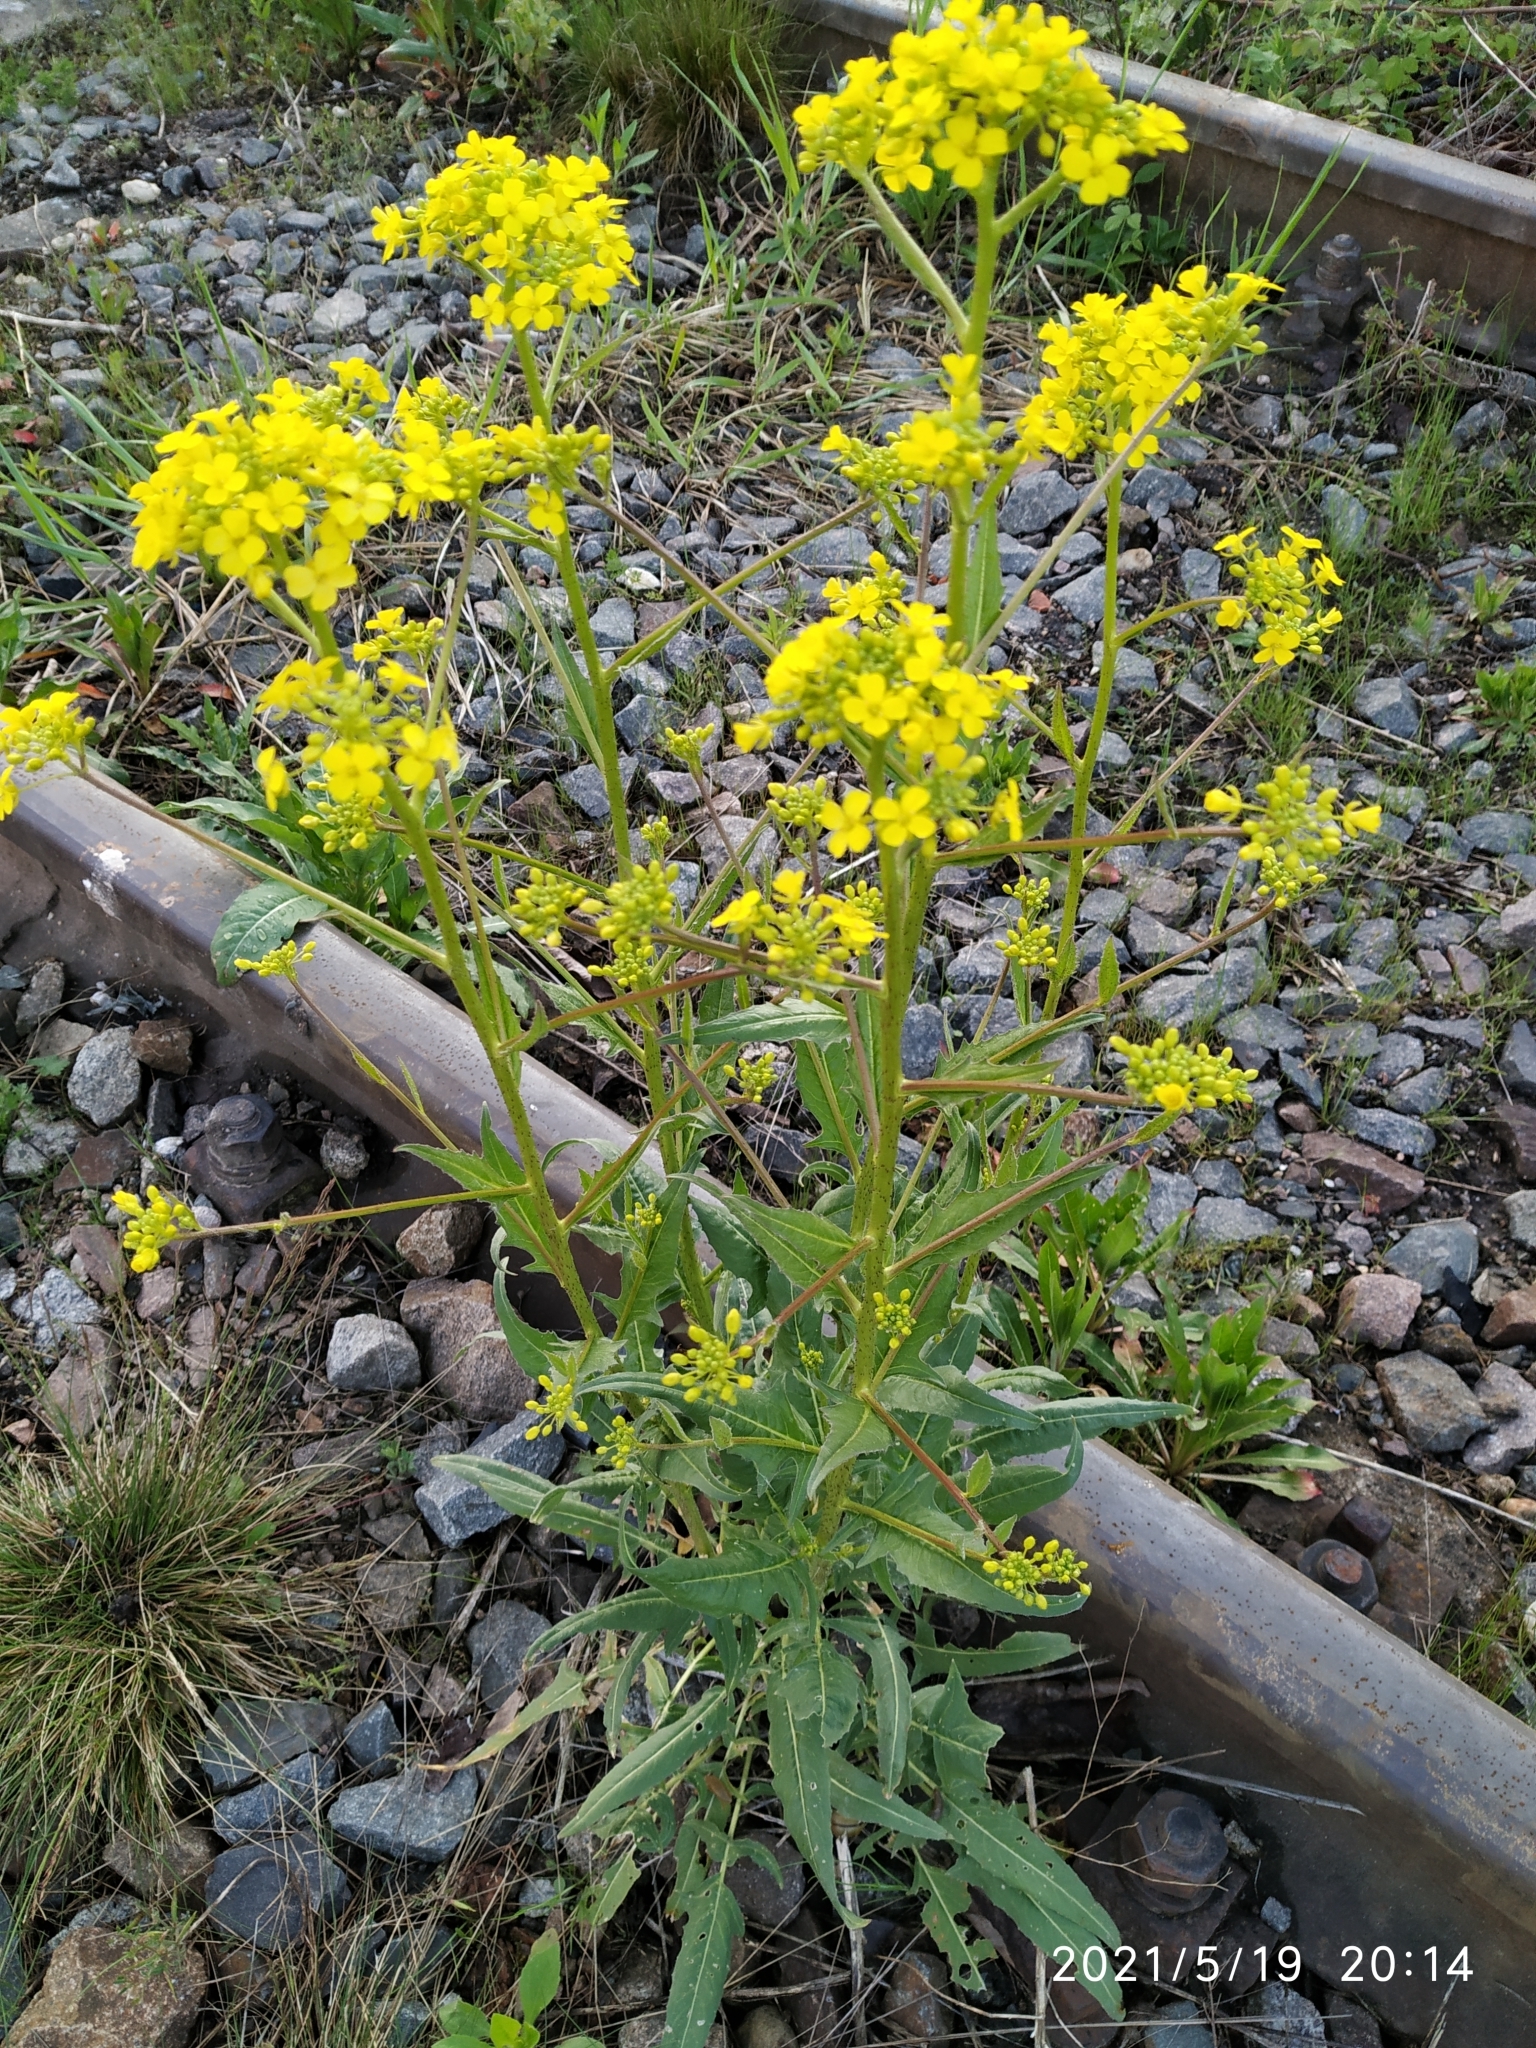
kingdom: Plantae
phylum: Tracheophyta
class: Magnoliopsida
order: Brassicales
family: Brassicaceae
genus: Bunias
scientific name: Bunias orientalis
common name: Warty-cabbage
